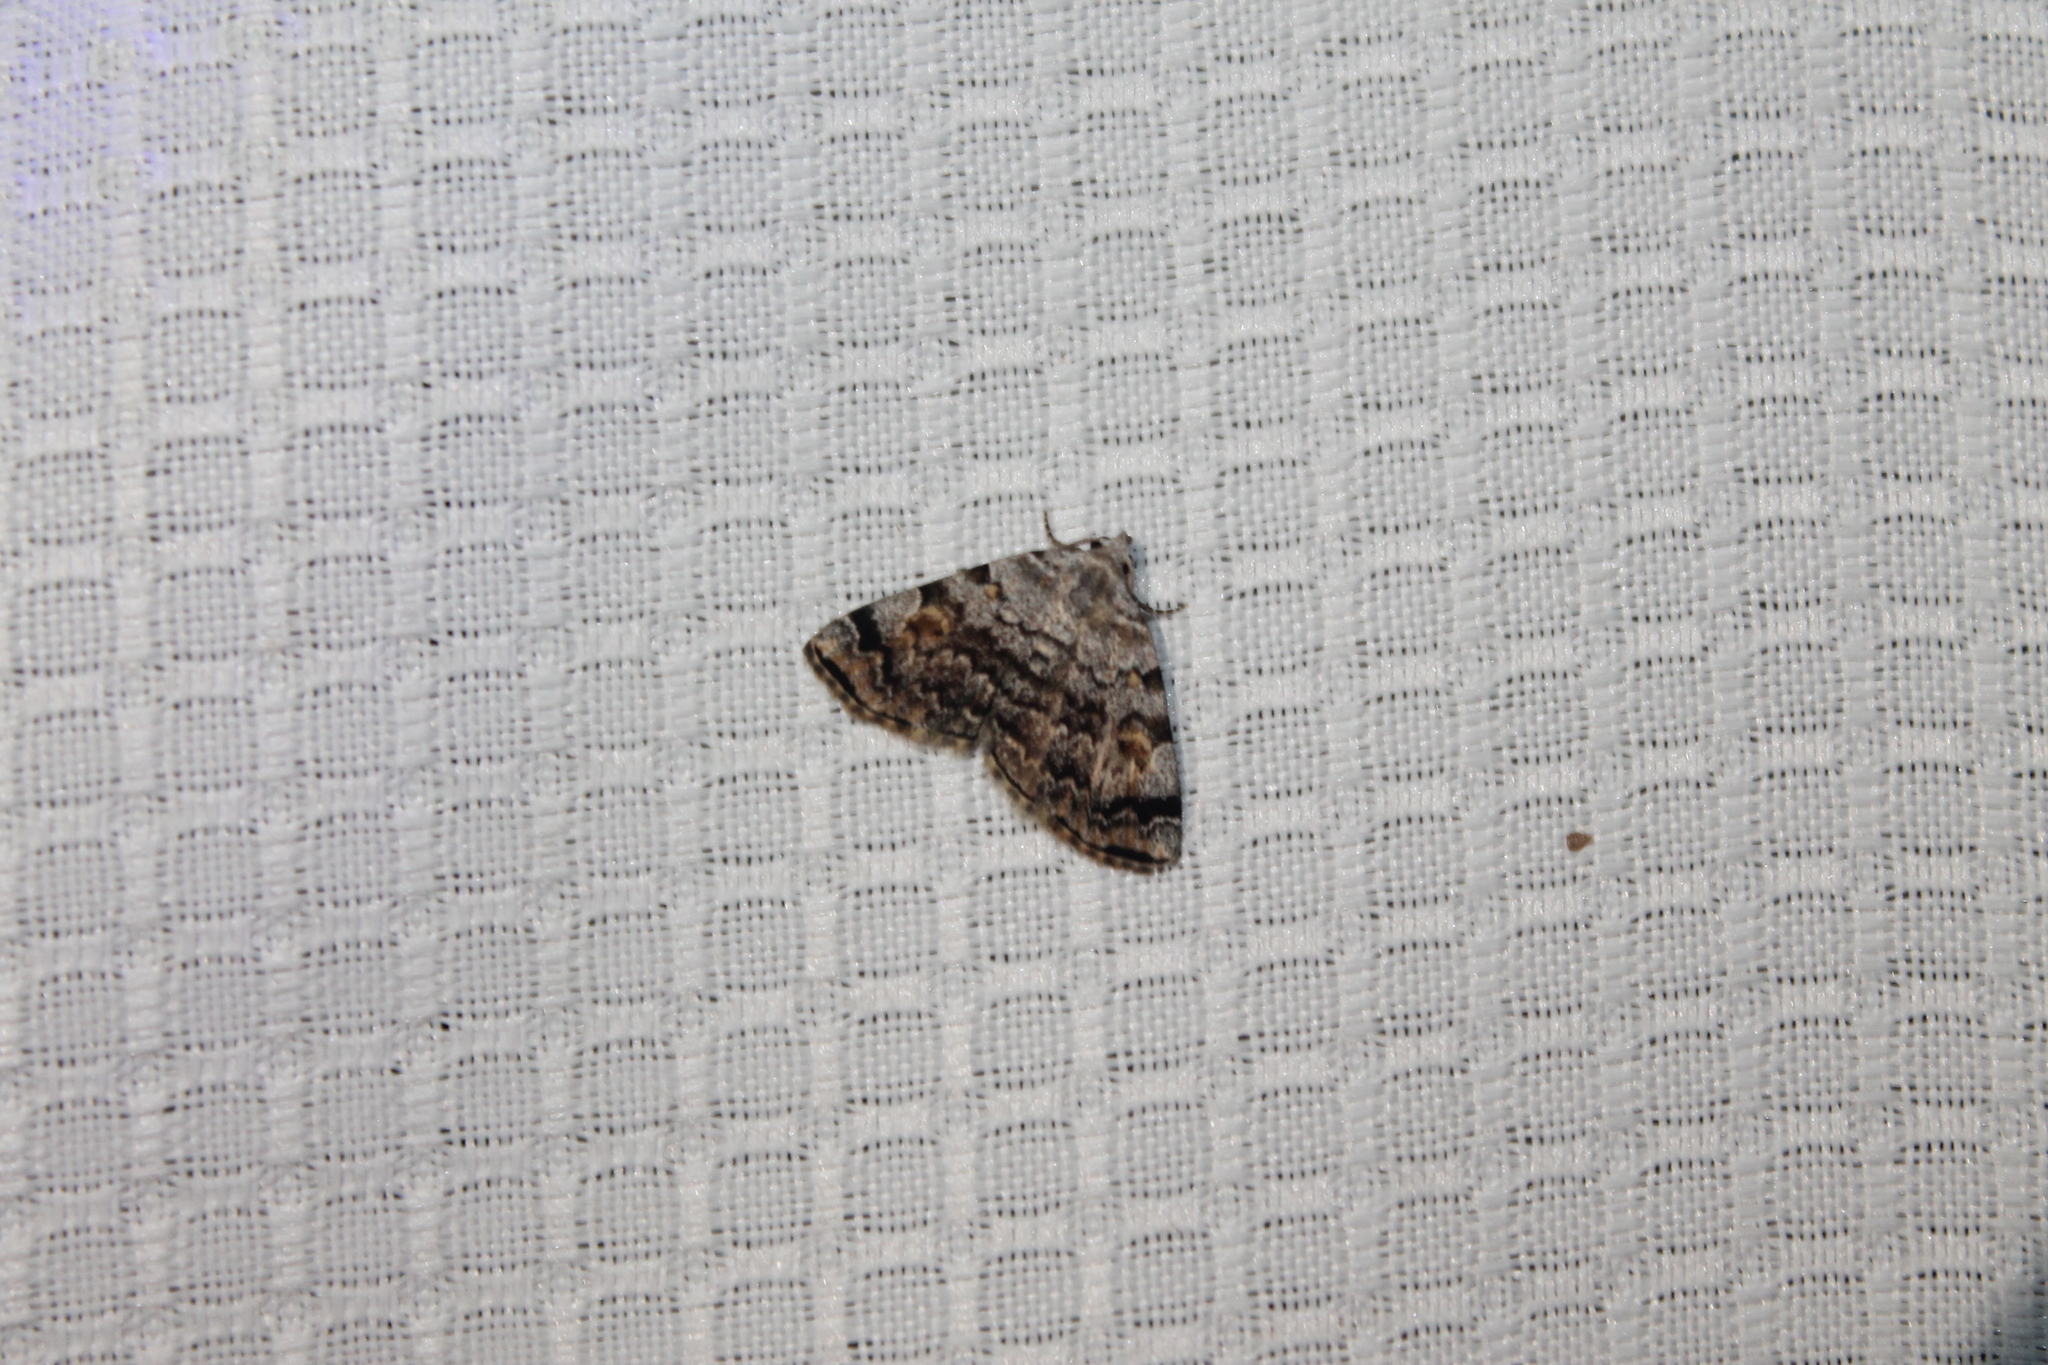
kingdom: Animalia
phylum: Arthropoda
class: Insecta
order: Lepidoptera
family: Erebidae
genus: Idia
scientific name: Idia americalis
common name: American idia moth
